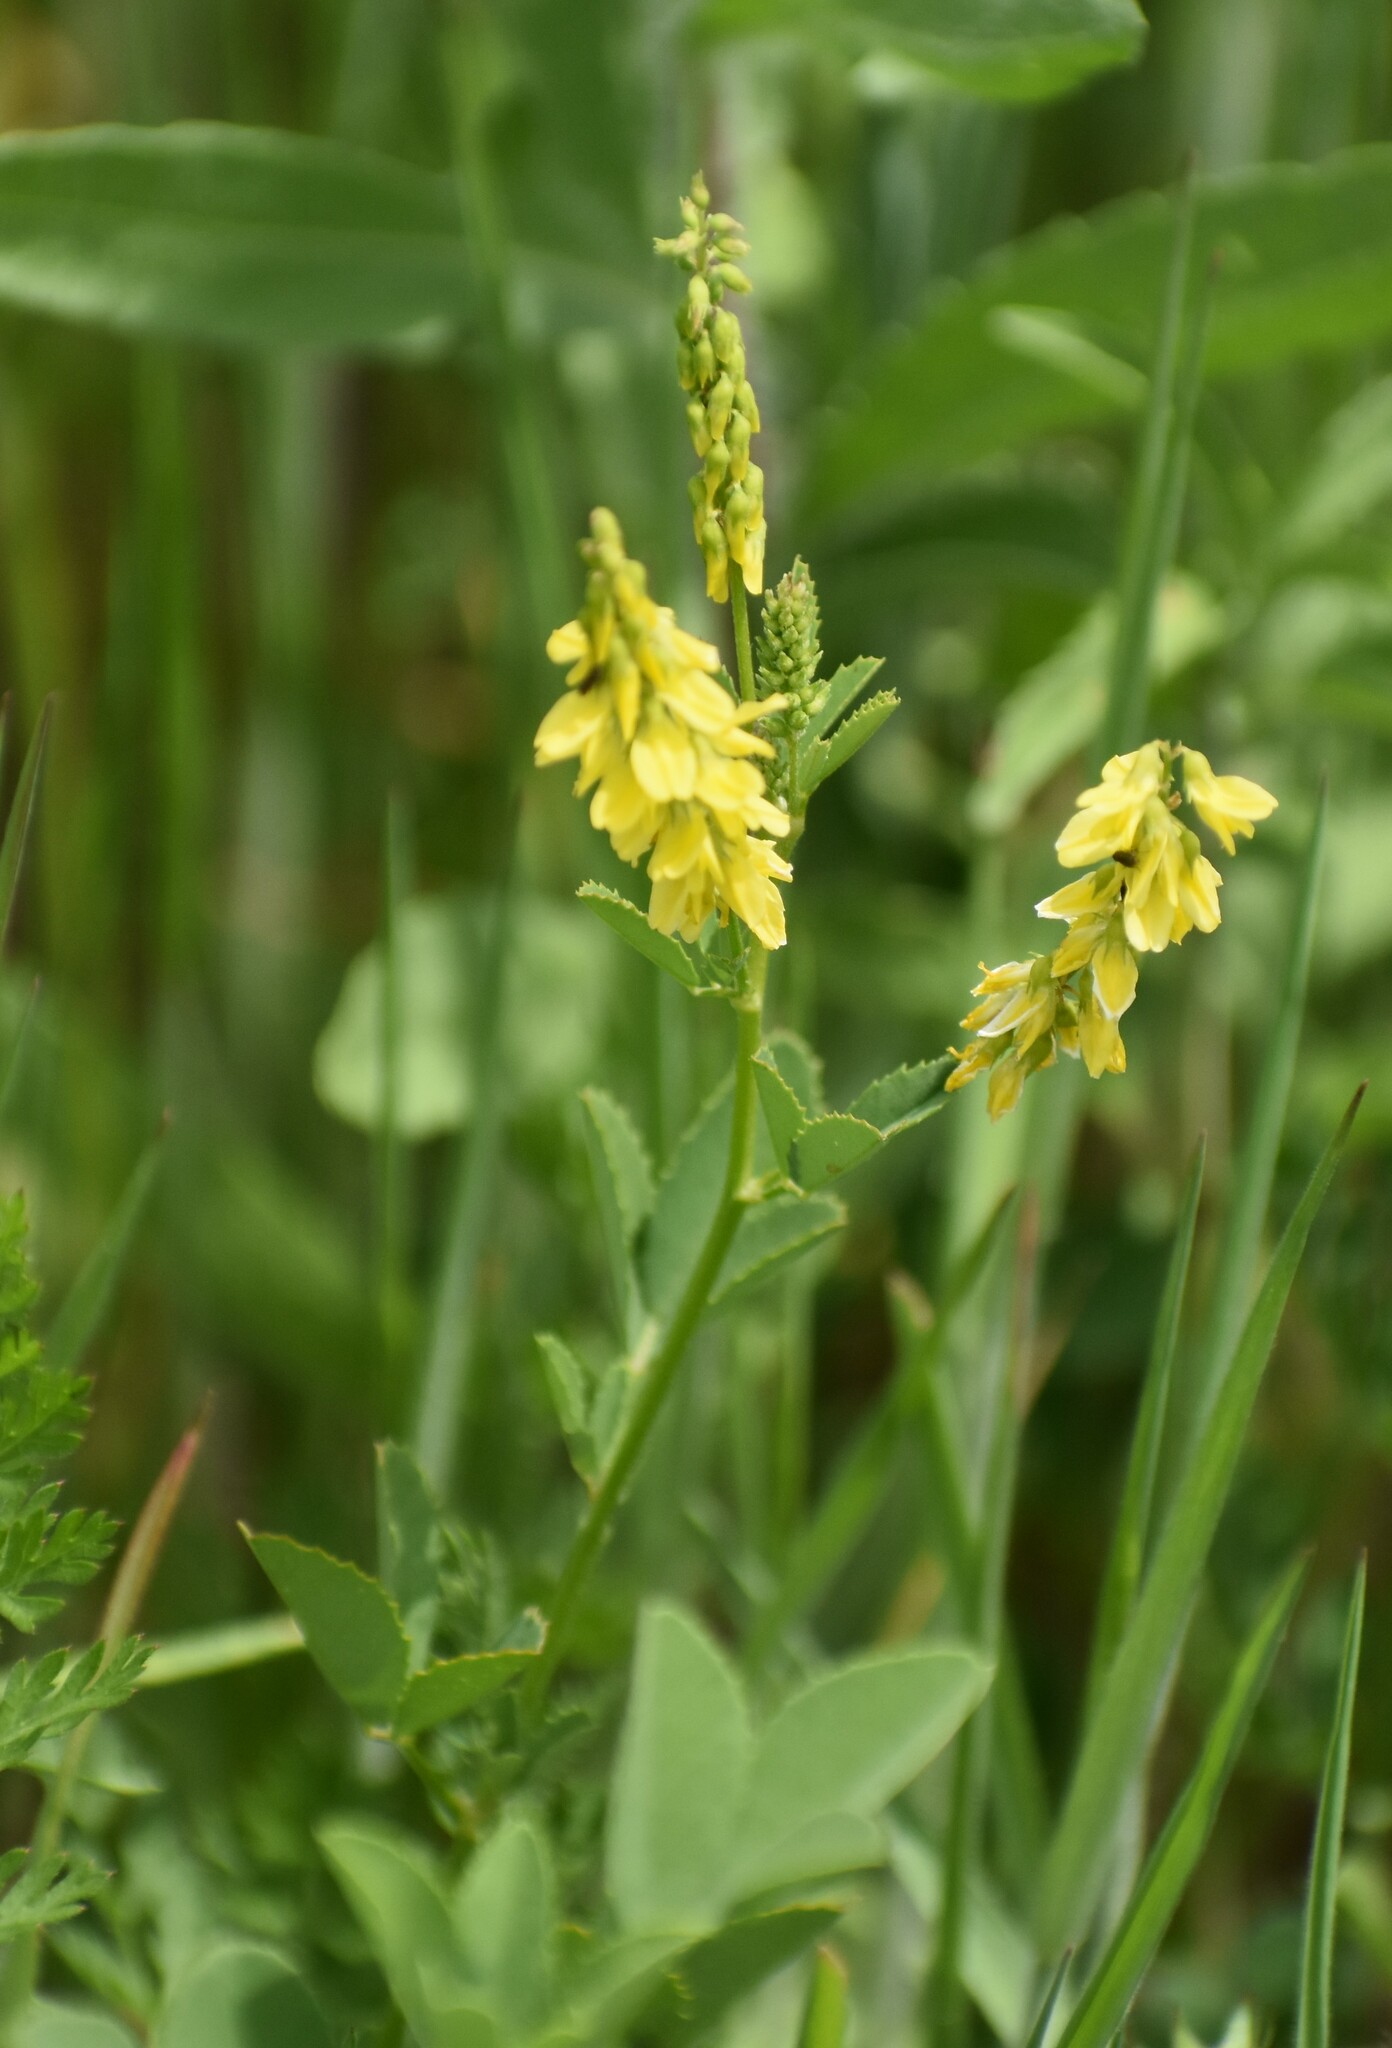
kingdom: Plantae
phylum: Tracheophyta
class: Magnoliopsida
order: Fabales
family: Fabaceae
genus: Melilotus
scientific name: Melilotus officinalis
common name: Sweetclover
